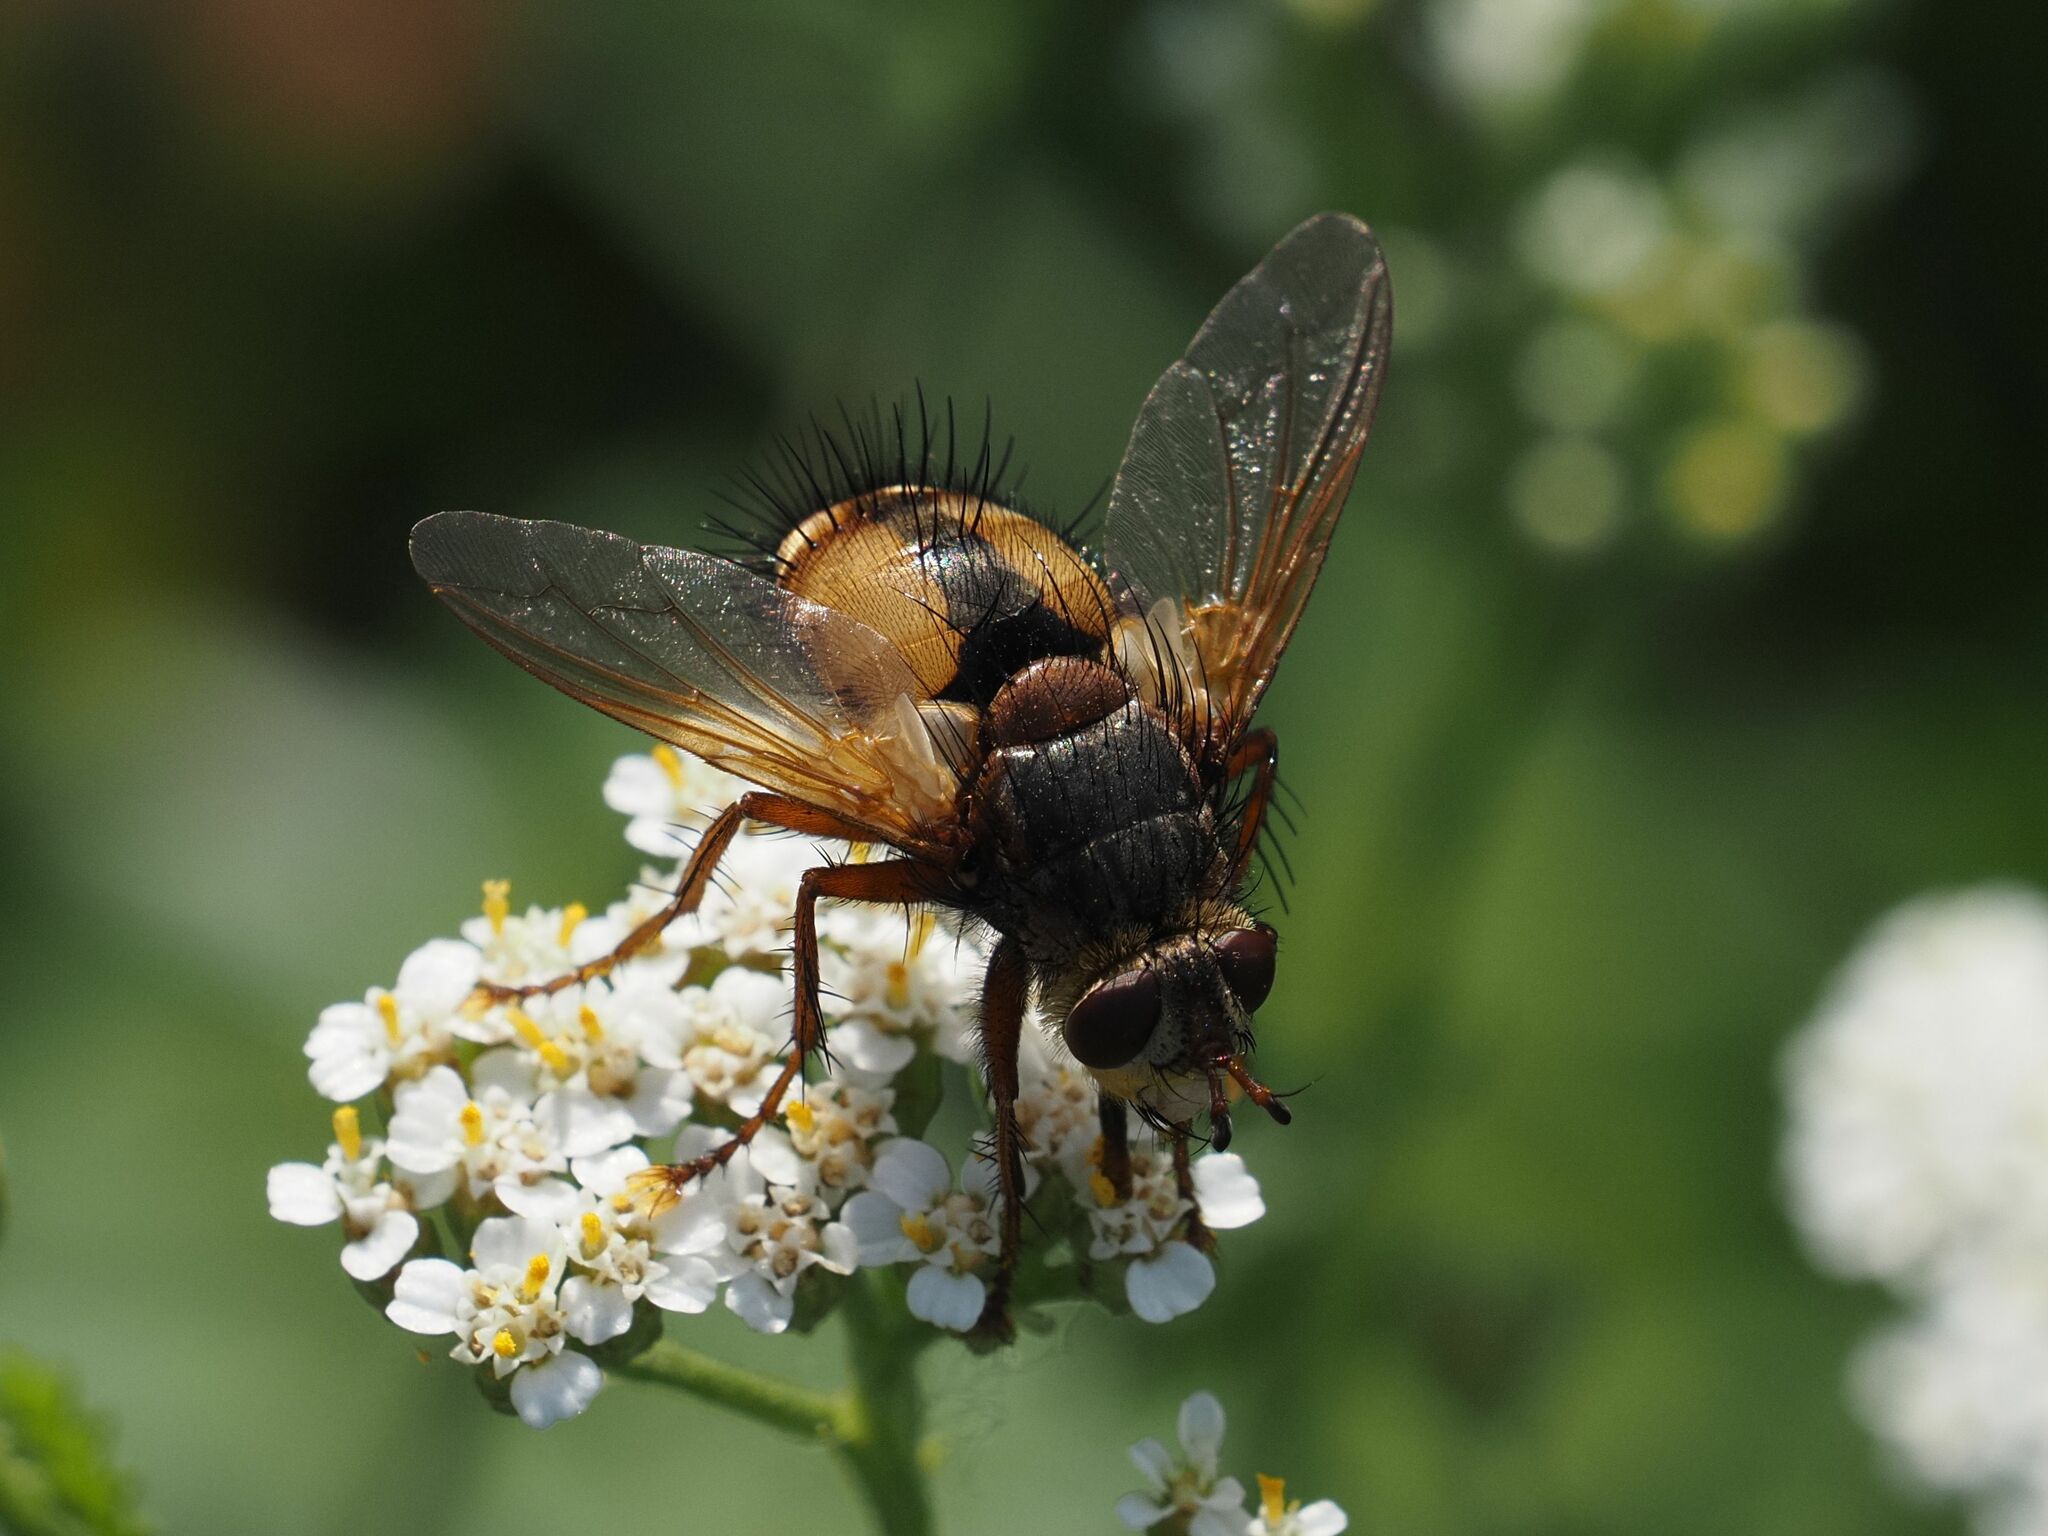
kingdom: Animalia
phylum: Arthropoda
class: Insecta
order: Diptera
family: Tachinidae
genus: Tachina
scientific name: Tachina fera
